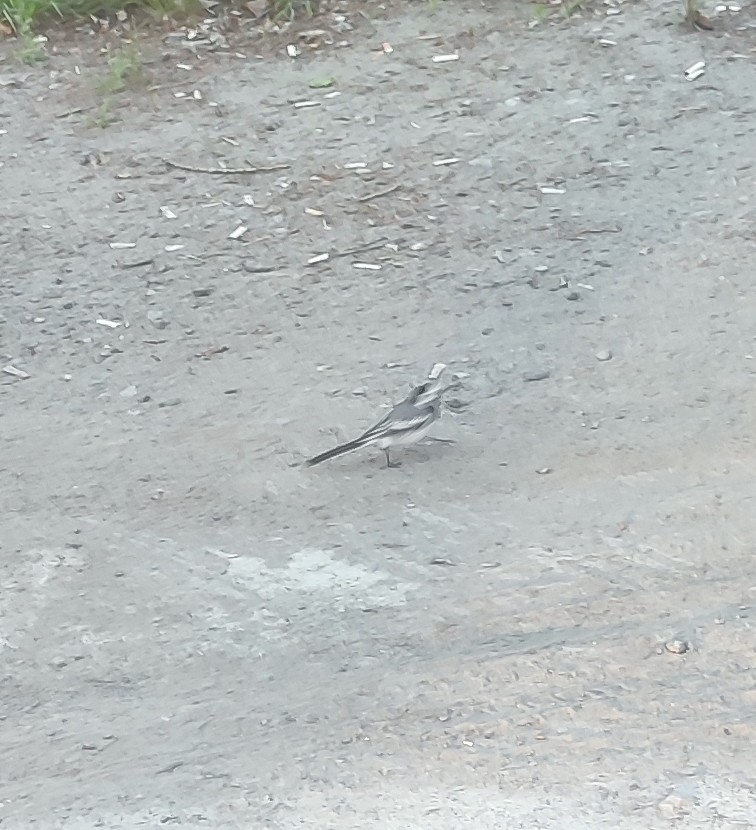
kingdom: Animalia
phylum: Chordata
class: Aves
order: Passeriformes
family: Motacillidae
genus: Motacilla
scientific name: Motacilla alba
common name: White wagtail
